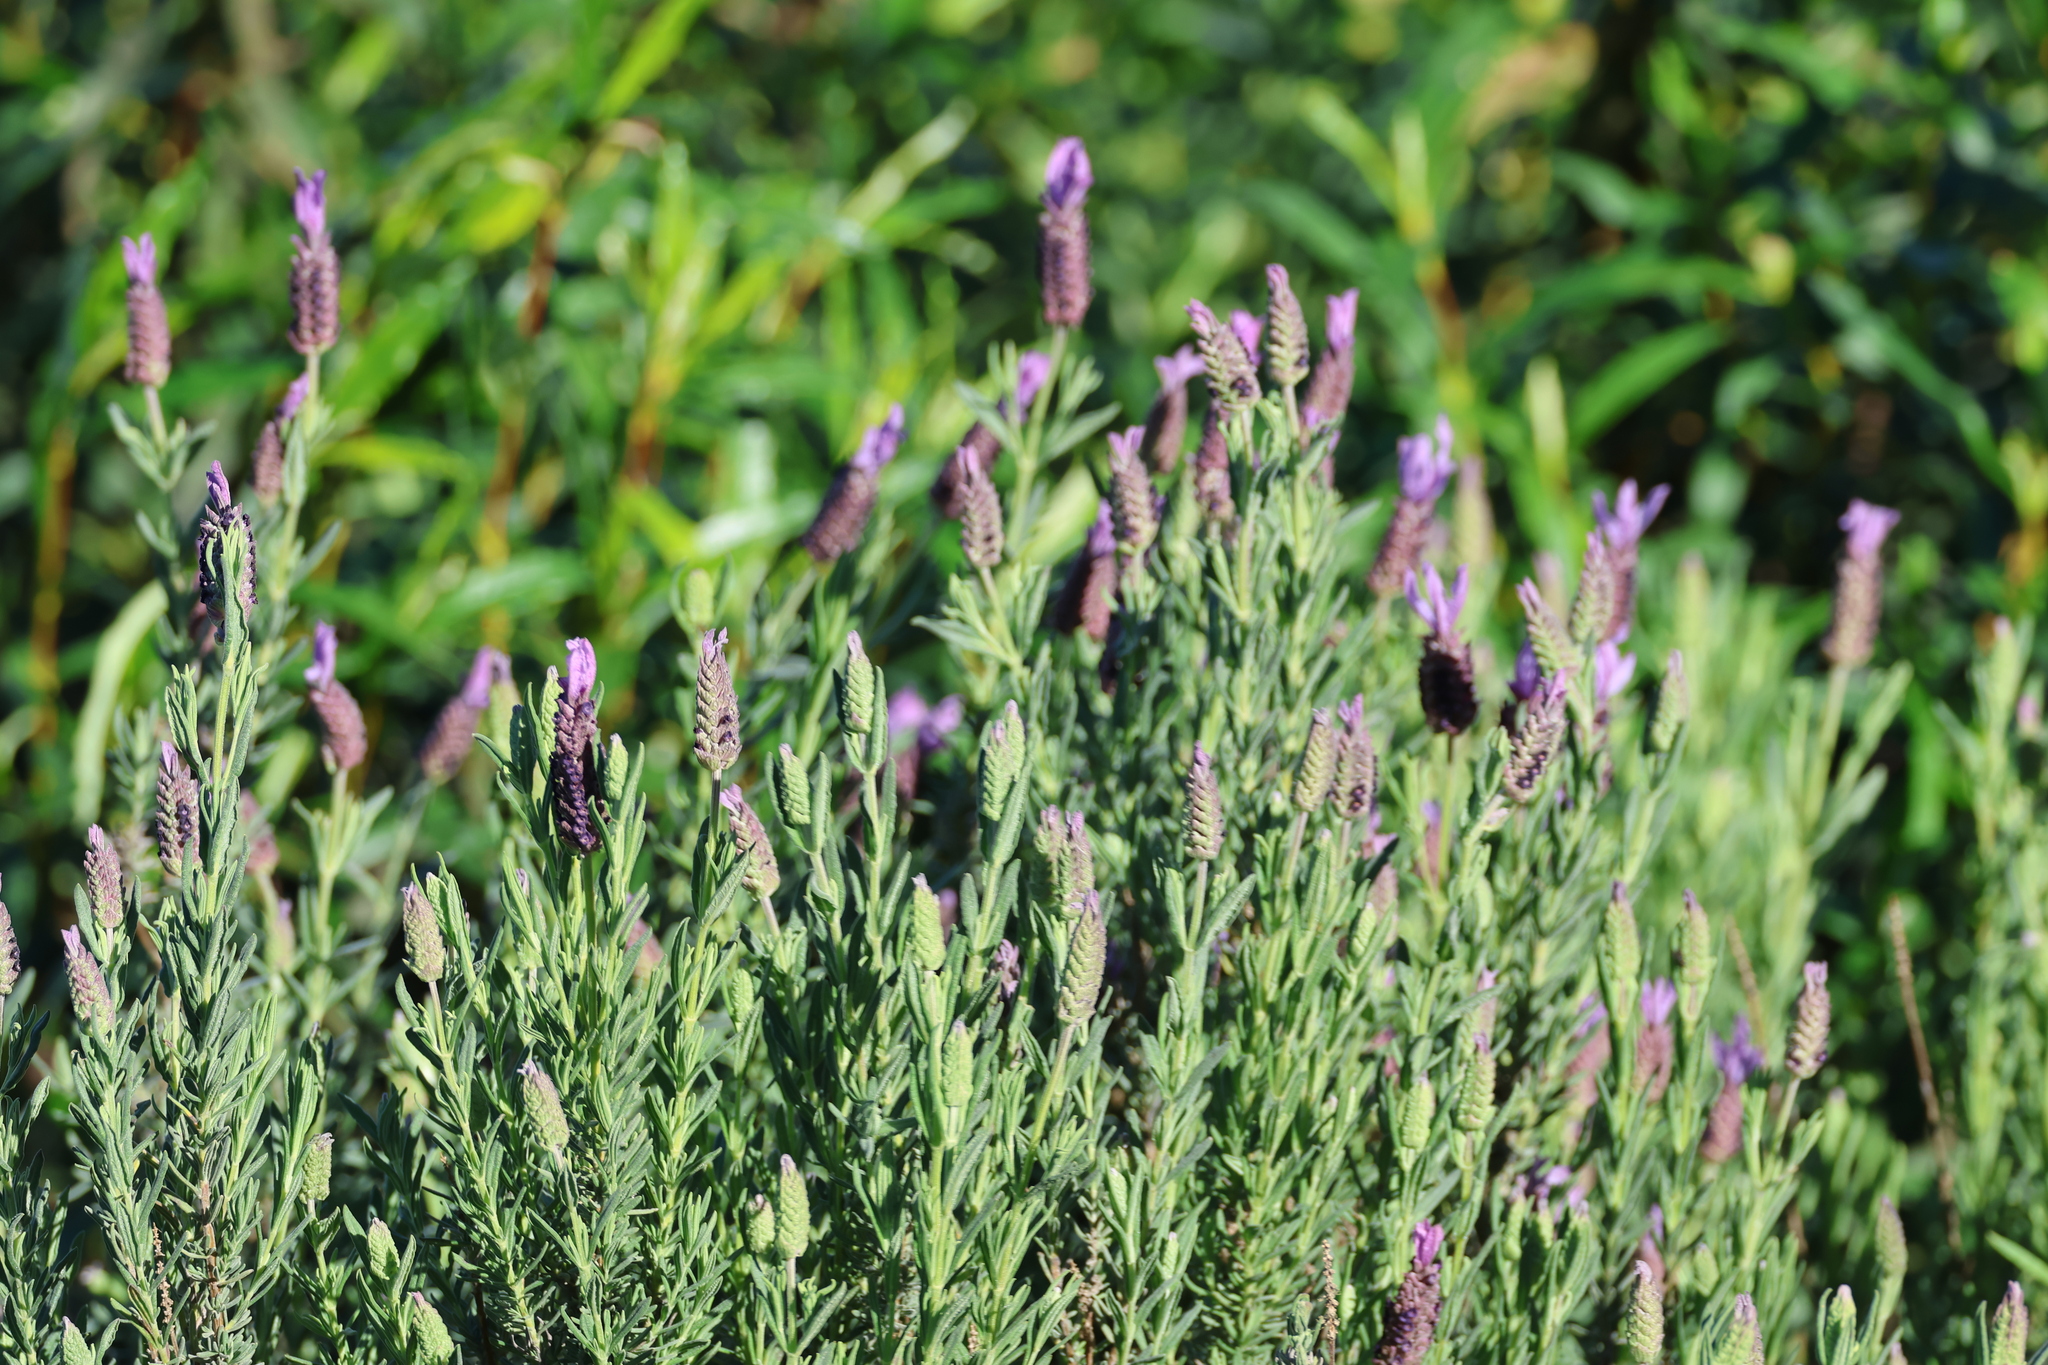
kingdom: Plantae
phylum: Tracheophyta
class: Magnoliopsida
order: Lamiales
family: Lamiaceae
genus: Lavandula
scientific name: Lavandula stoechas
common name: French lavender
